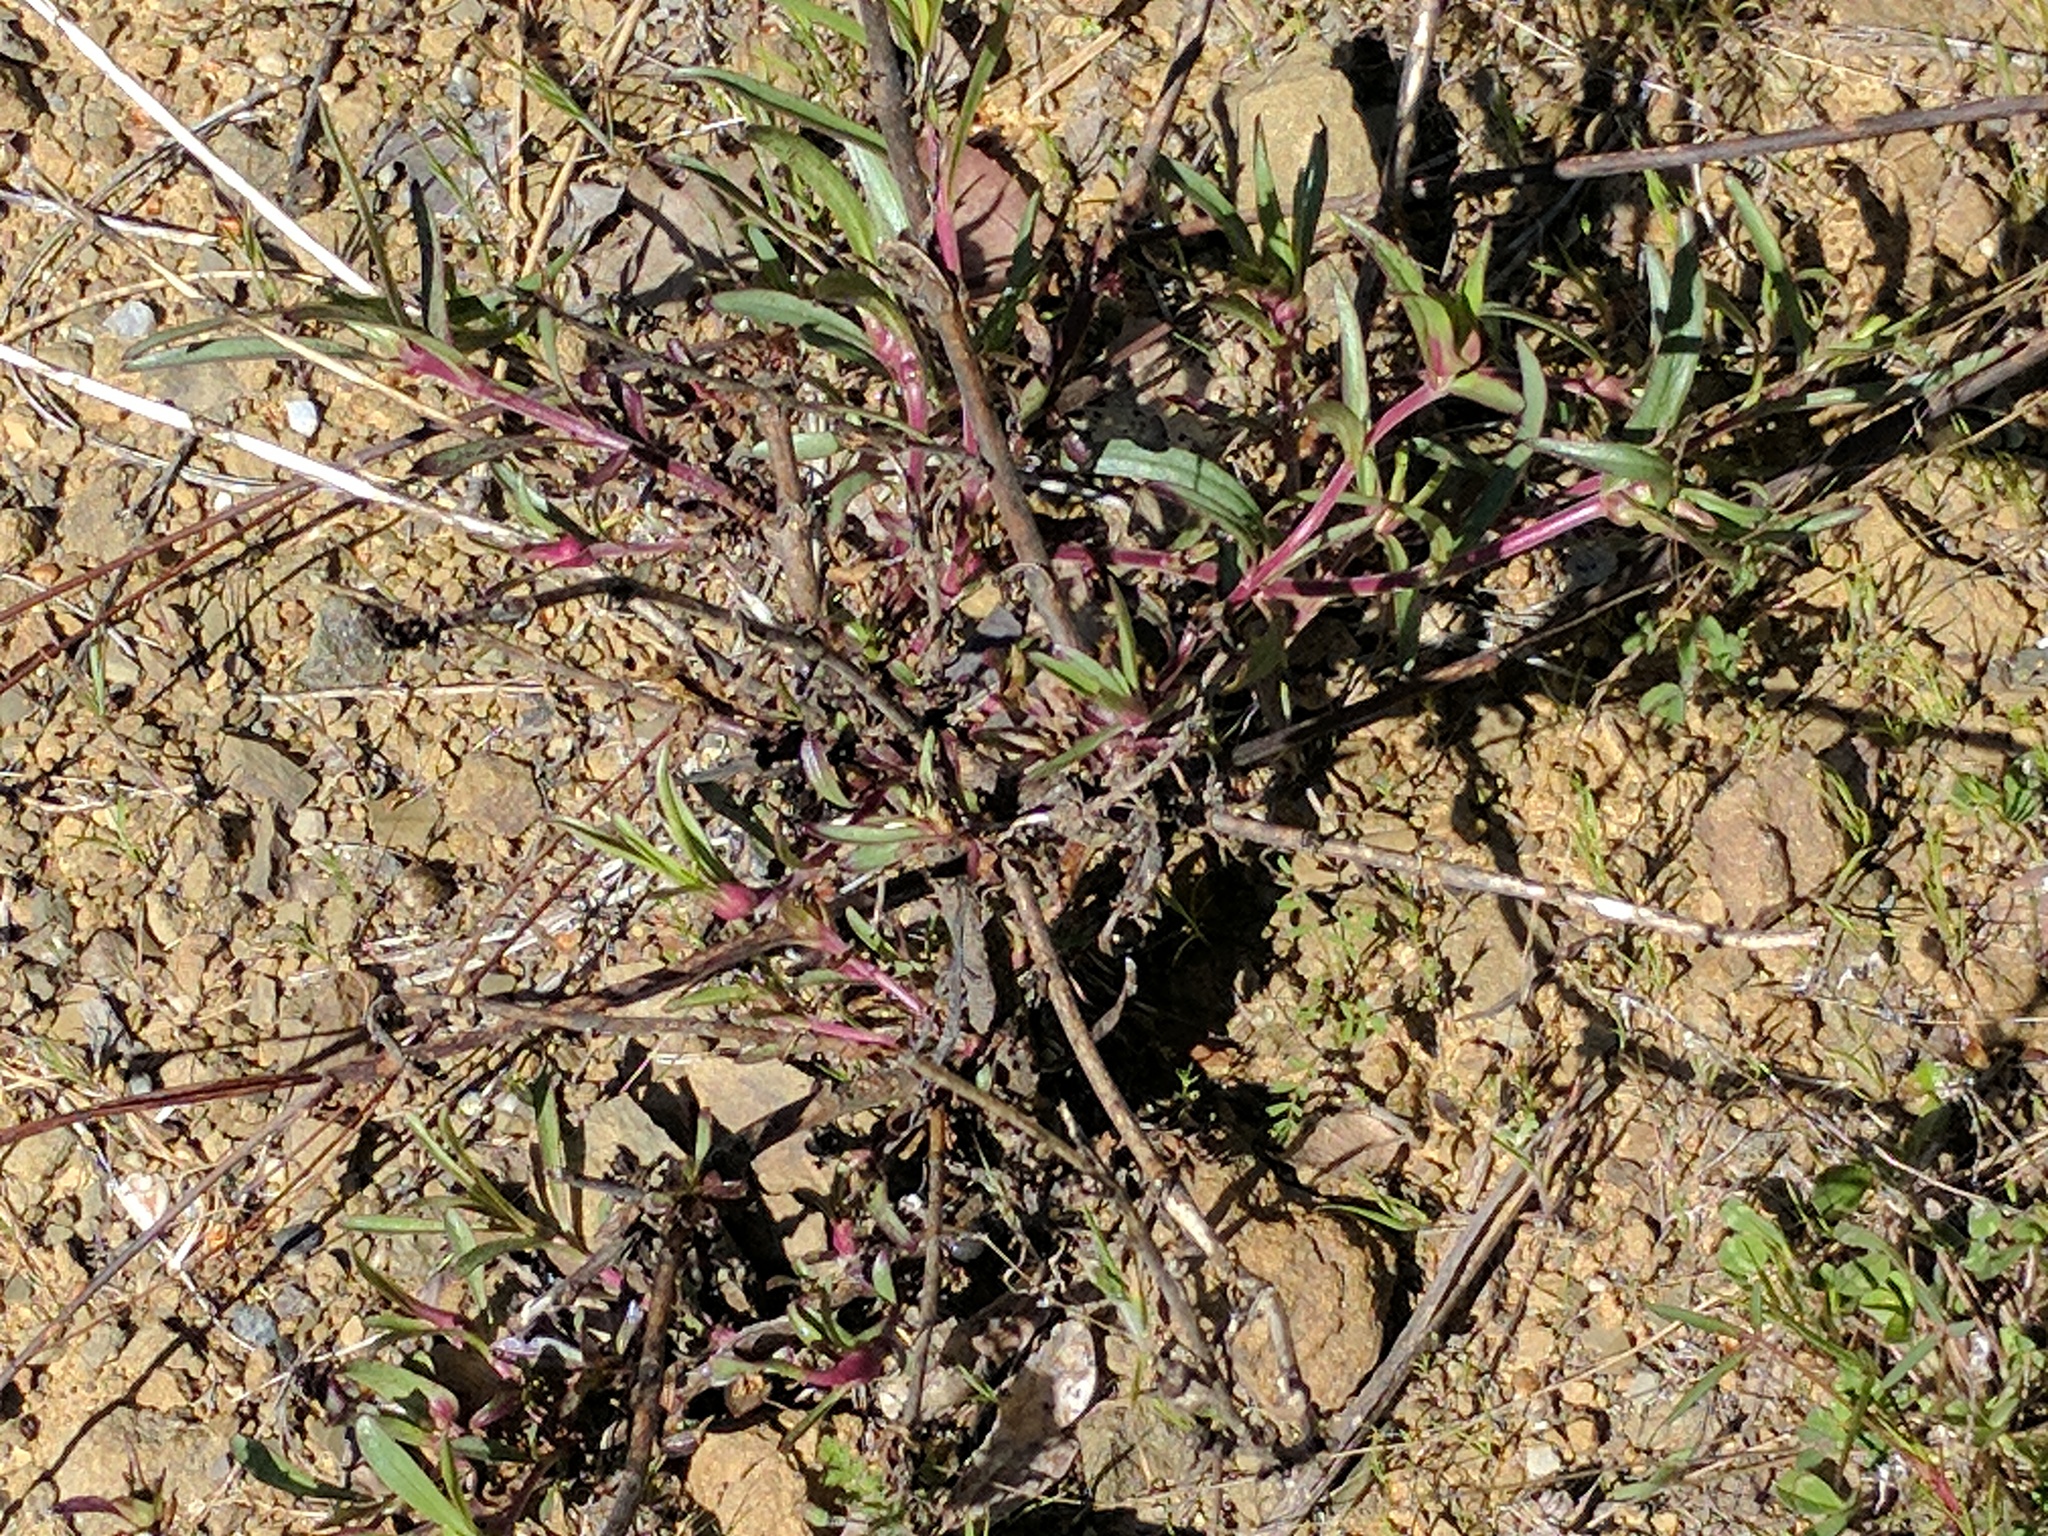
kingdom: Plantae
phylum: Tracheophyta
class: Magnoliopsida
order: Lamiales
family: Plantaginaceae
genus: Penstemon
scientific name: Penstemon heterophyllus
